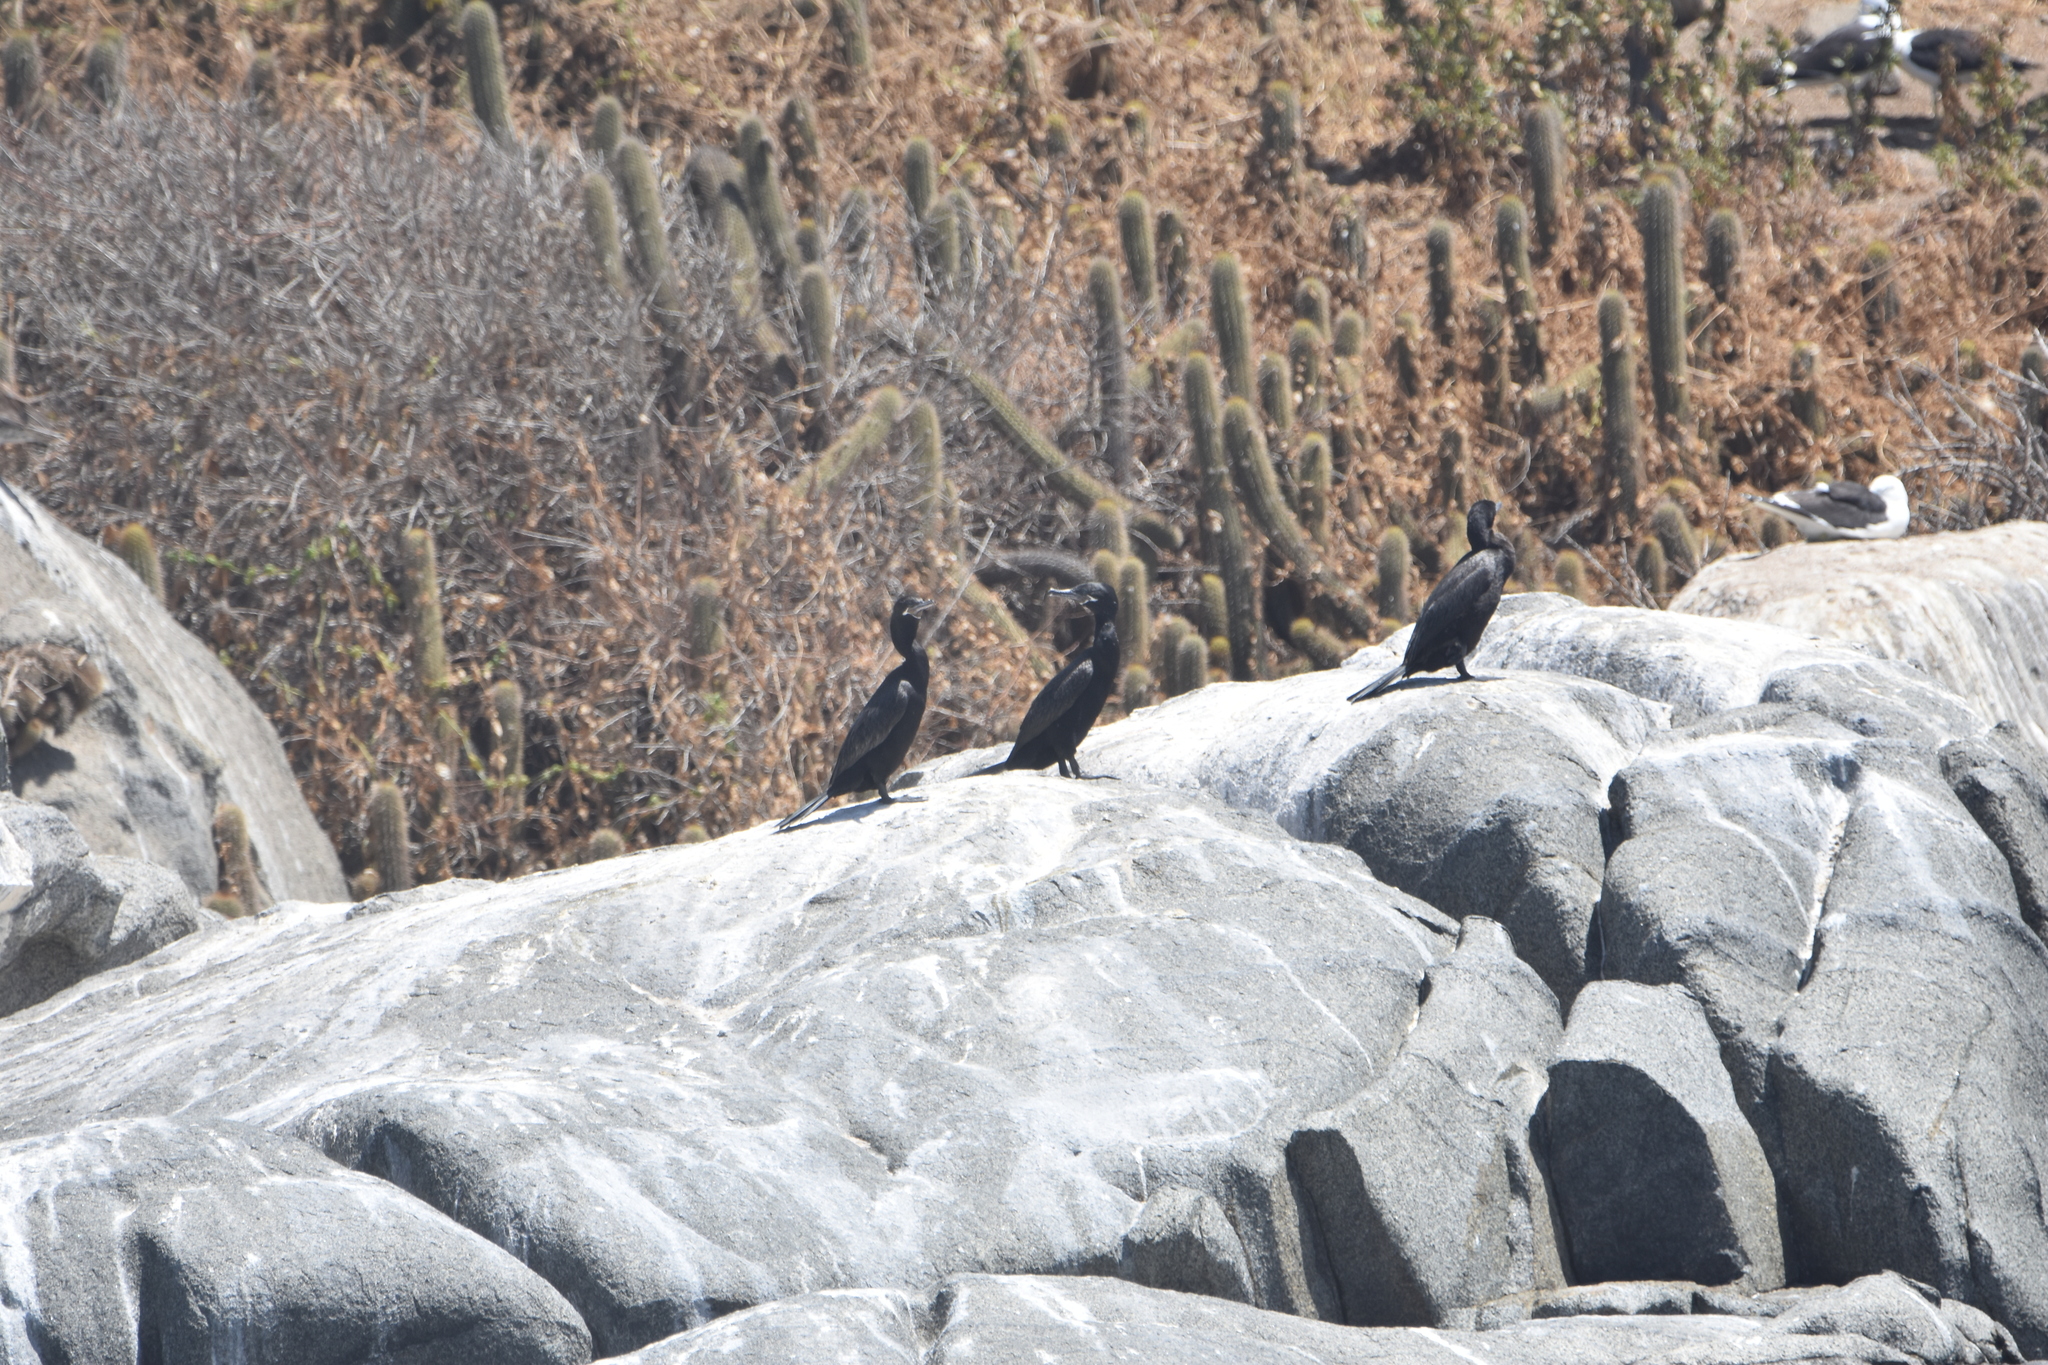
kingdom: Animalia
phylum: Chordata
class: Aves
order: Suliformes
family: Phalacrocoracidae
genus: Phalacrocorax
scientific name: Phalacrocorax brasilianus
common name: Neotropic cormorant
